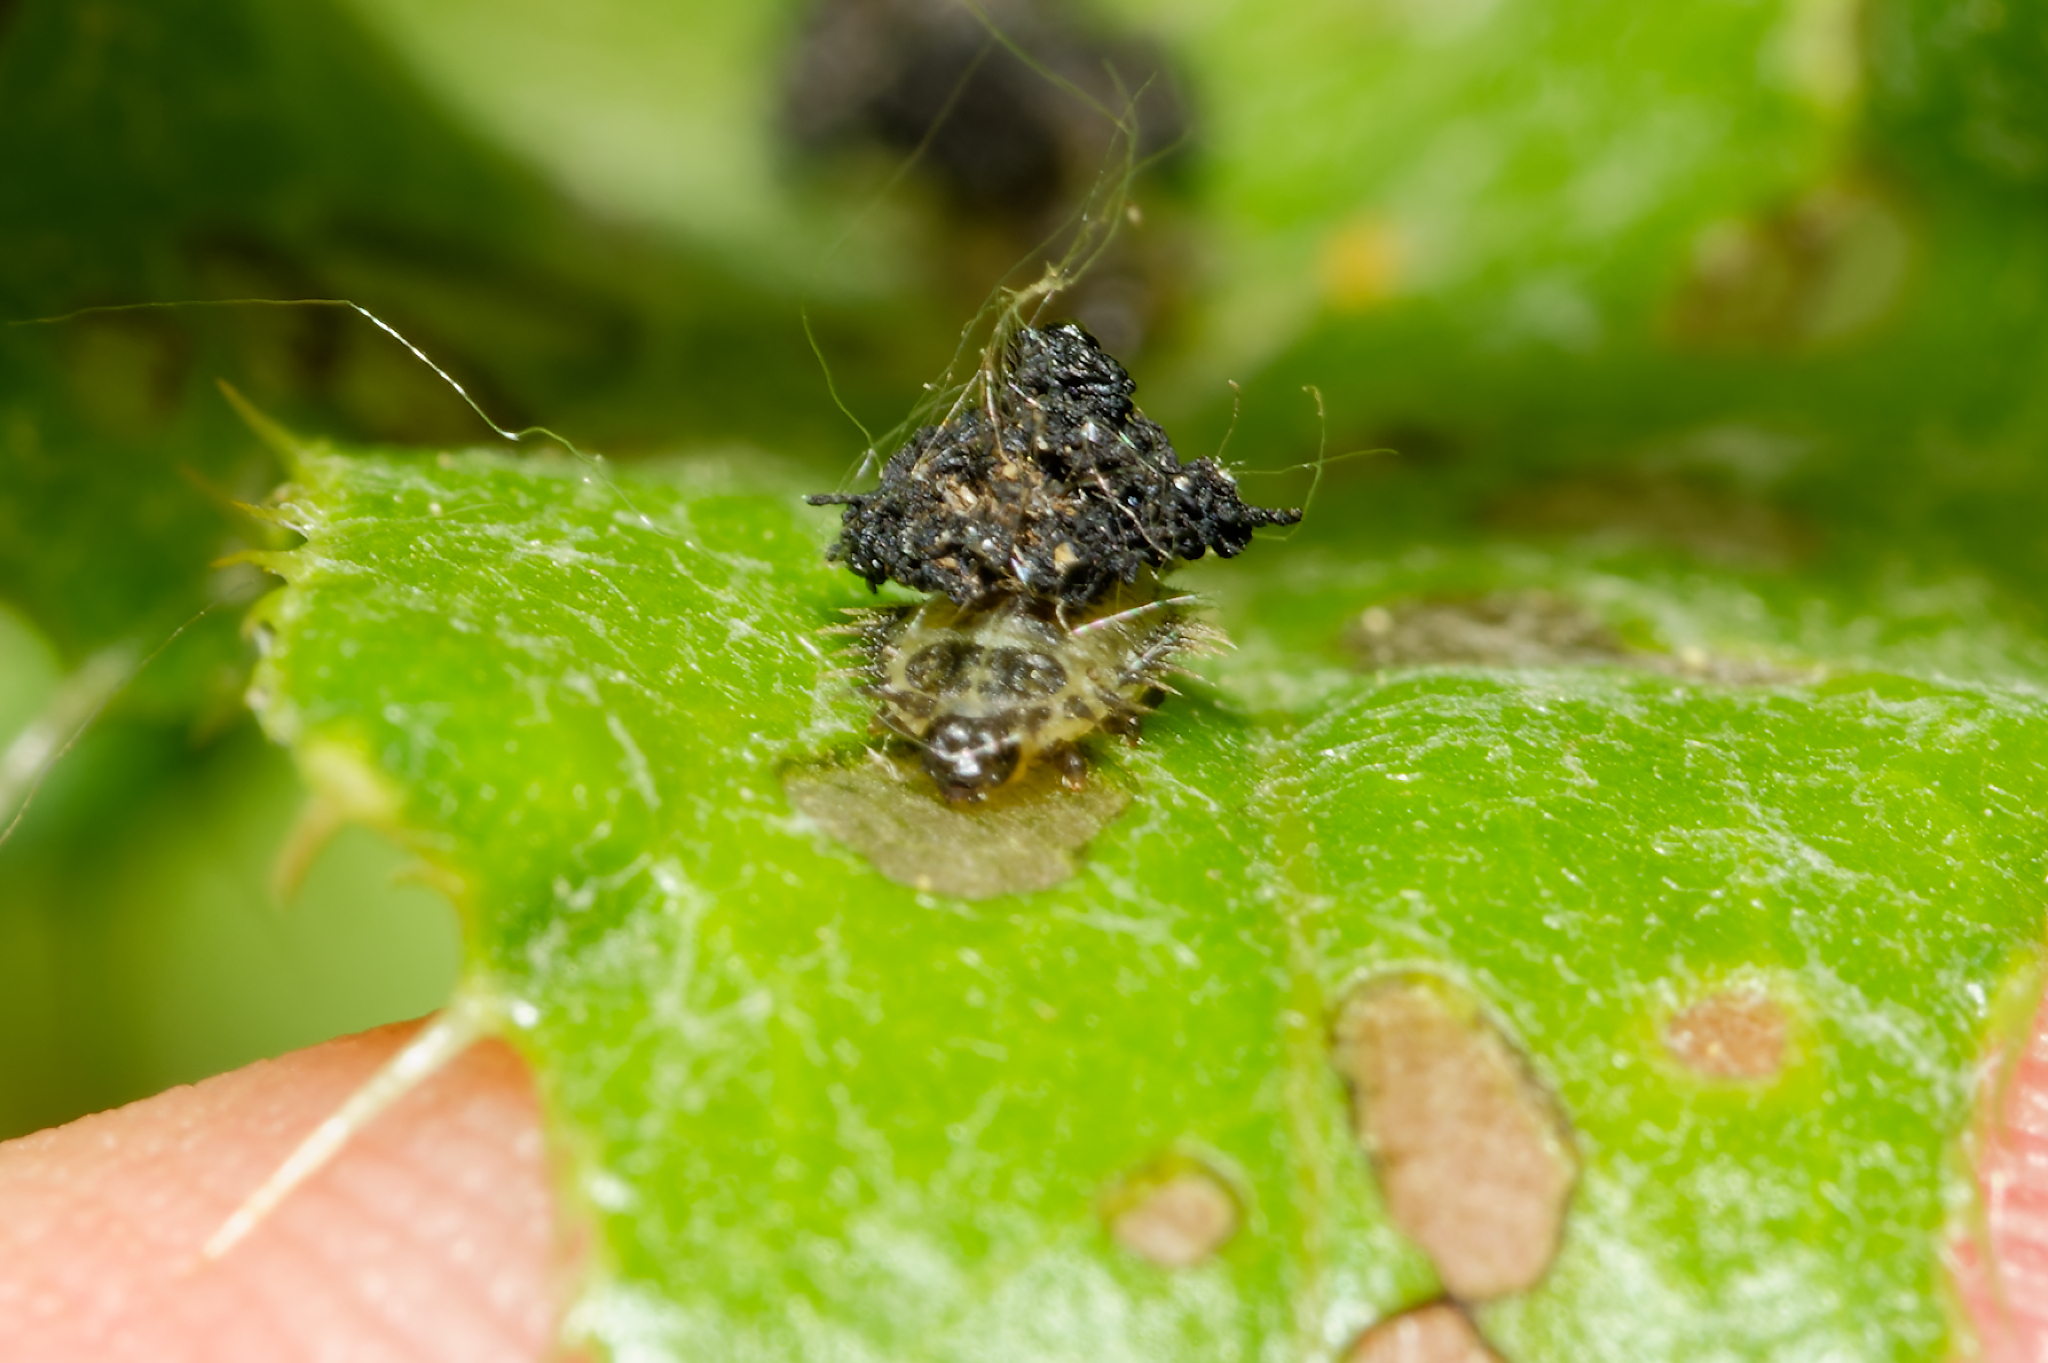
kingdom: Animalia
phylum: Arthropoda
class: Insecta
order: Coleoptera
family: Chrysomelidae
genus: Cassida
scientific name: Cassida rubiginosa
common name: Thistle tortoise beetle
